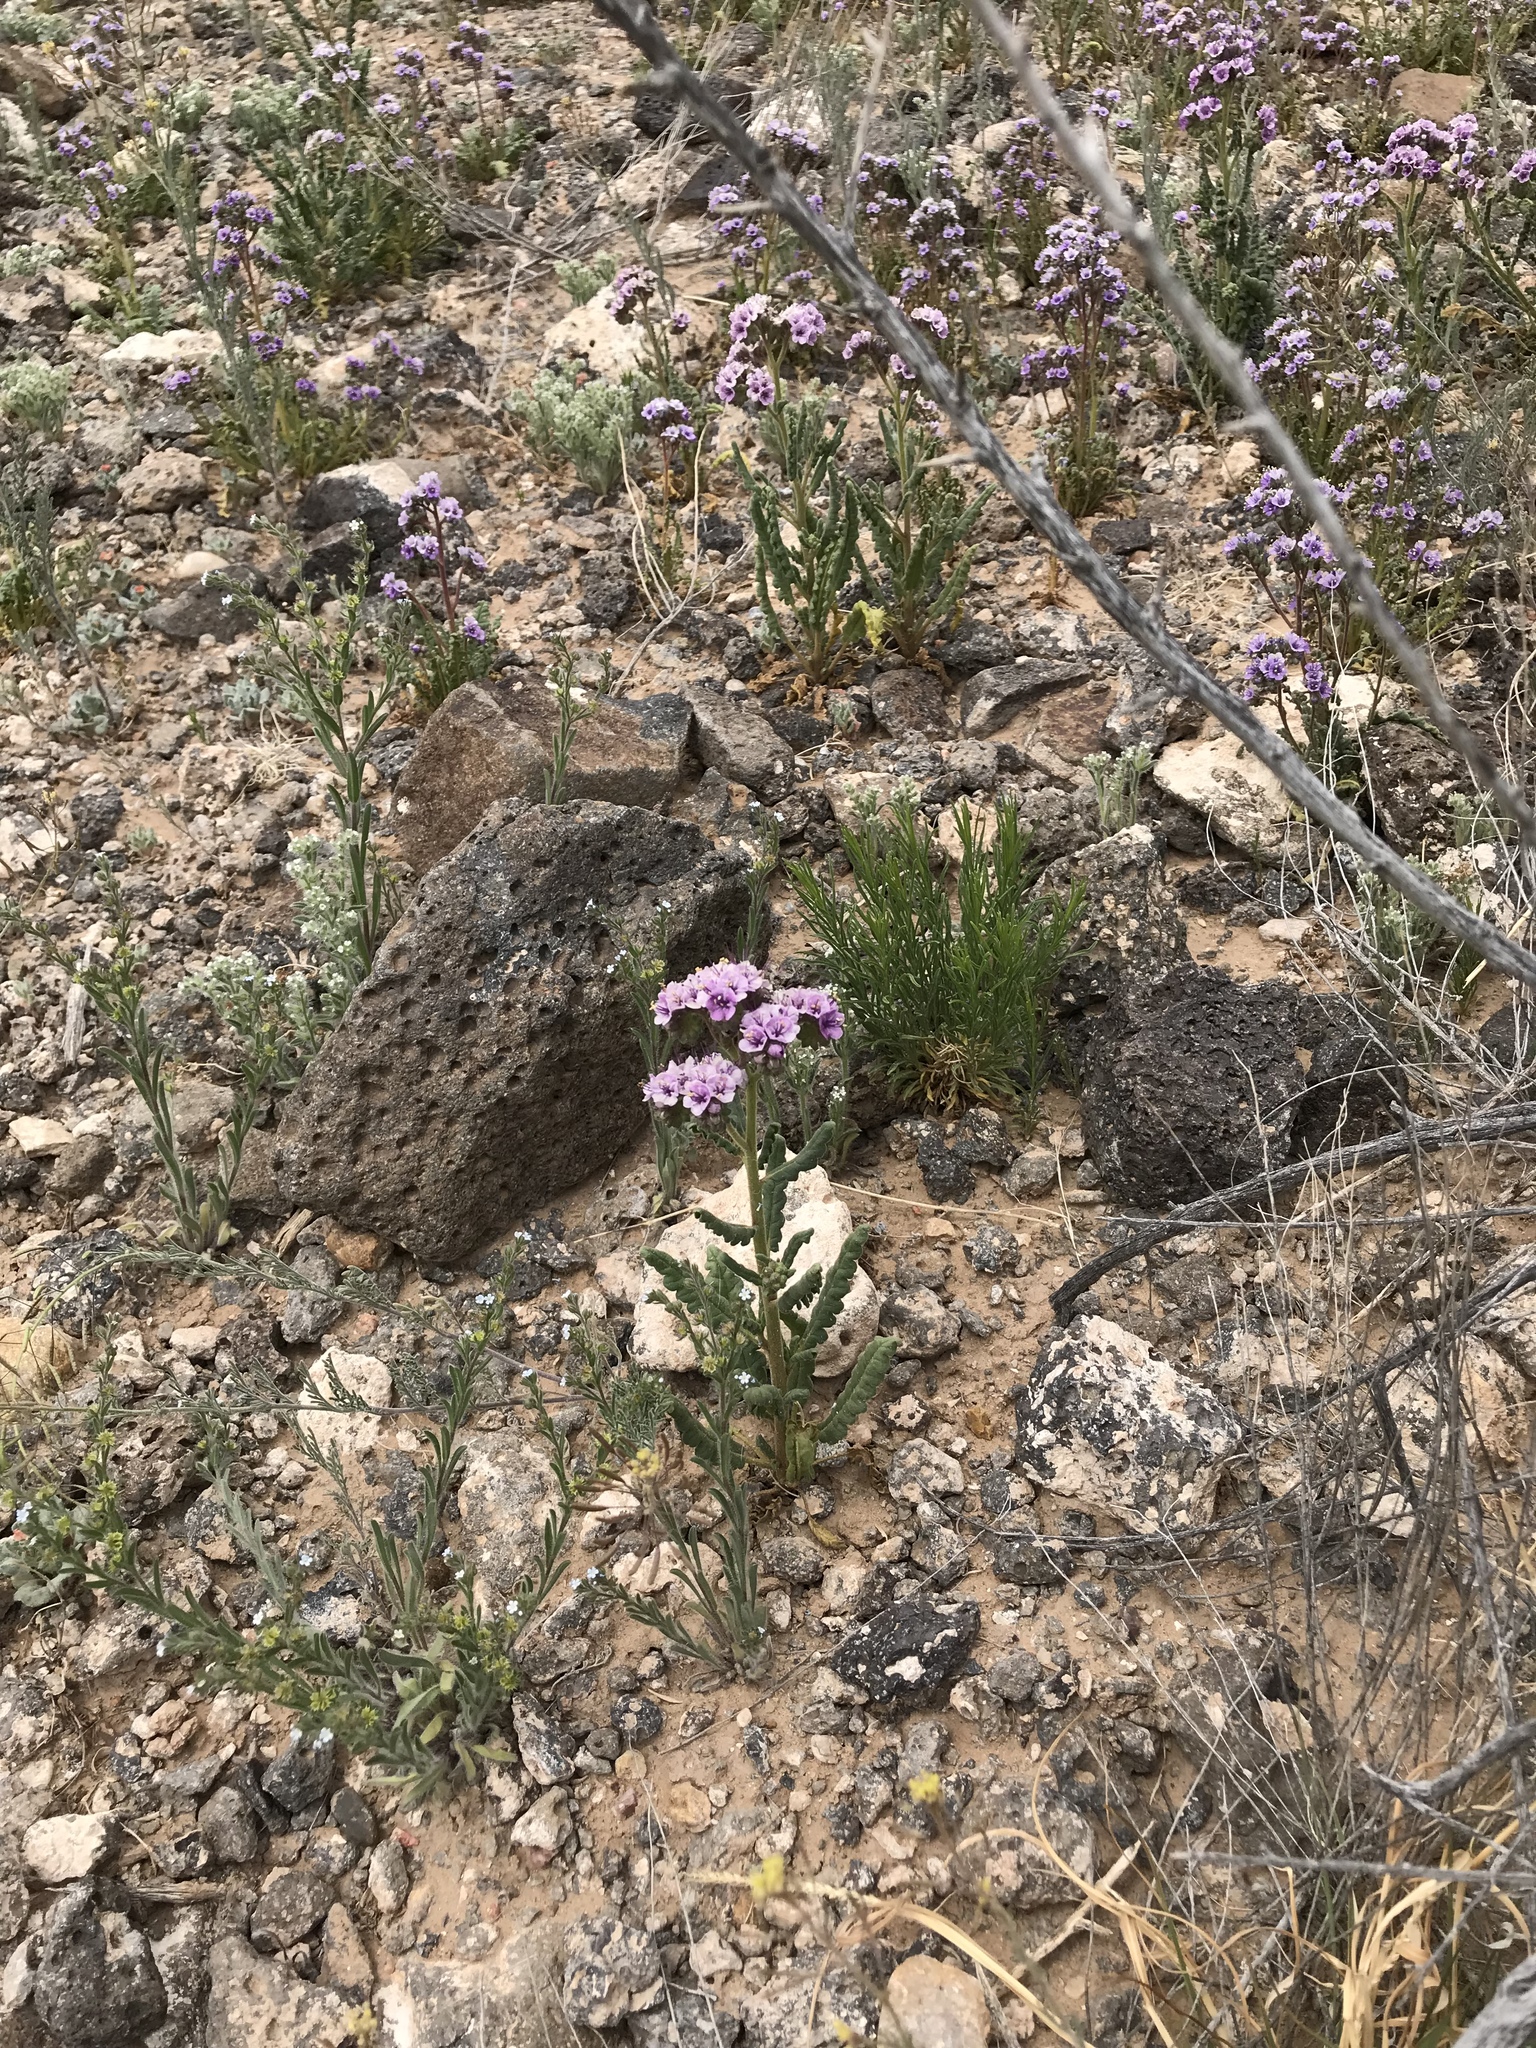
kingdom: Plantae
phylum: Tracheophyta
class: Magnoliopsida
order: Boraginales
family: Hydrophyllaceae
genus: Phacelia
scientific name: Phacelia crenulata
